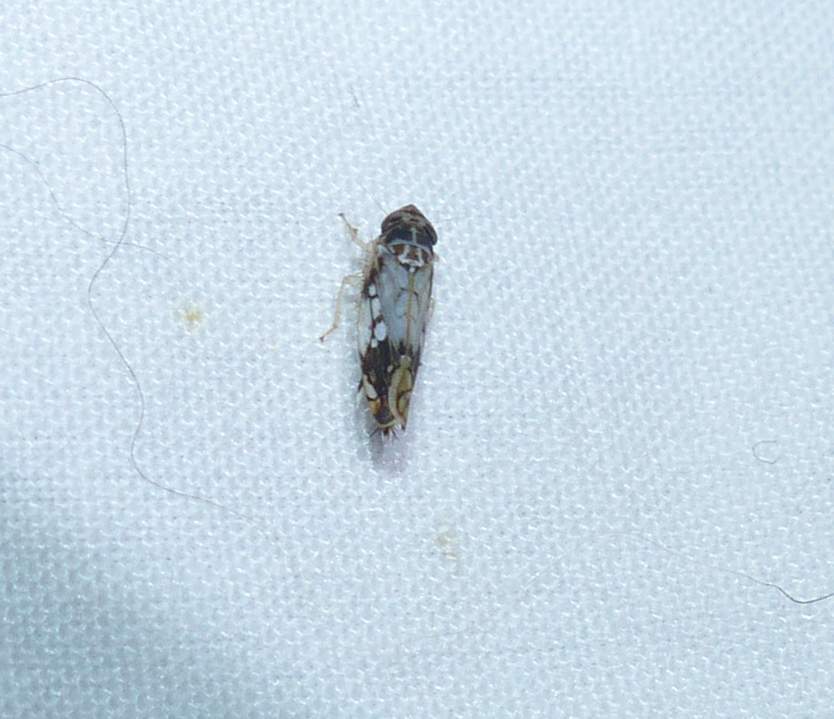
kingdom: Animalia
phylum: Arthropoda
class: Insecta
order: Hemiptera
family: Cicadellidae
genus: Scaphoideus
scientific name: Scaphoideus obtusus
